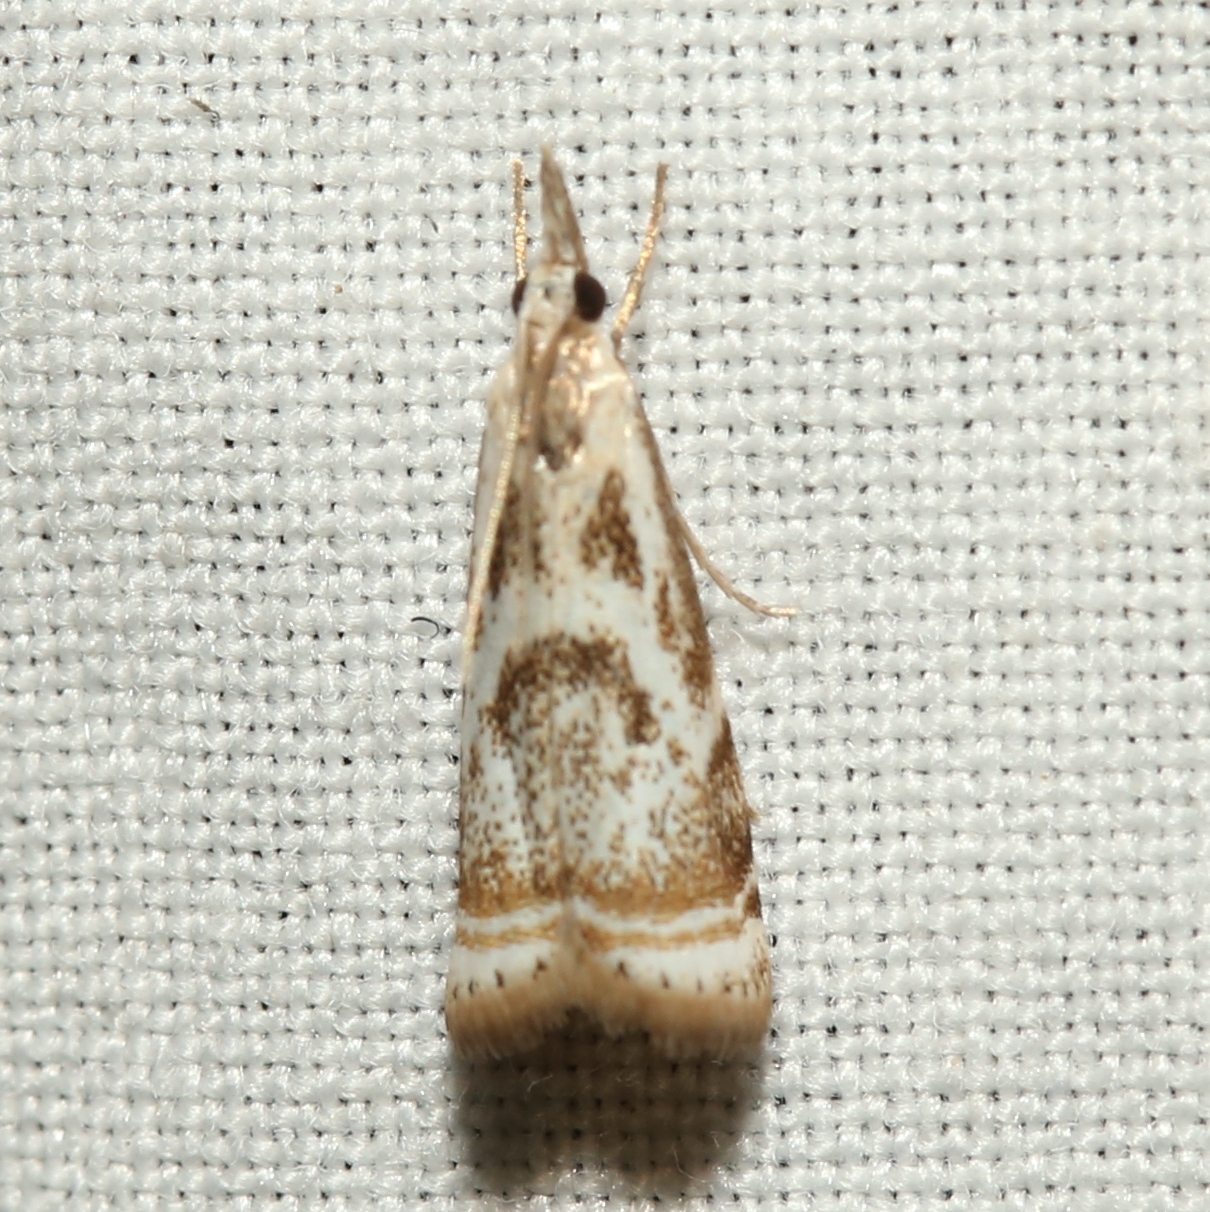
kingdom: Animalia
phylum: Arthropoda
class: Insecta
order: Lepidoptera
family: Crambidae
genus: Microcrambus
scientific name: Microcrambus elegans
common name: Elegant grass-veneer
